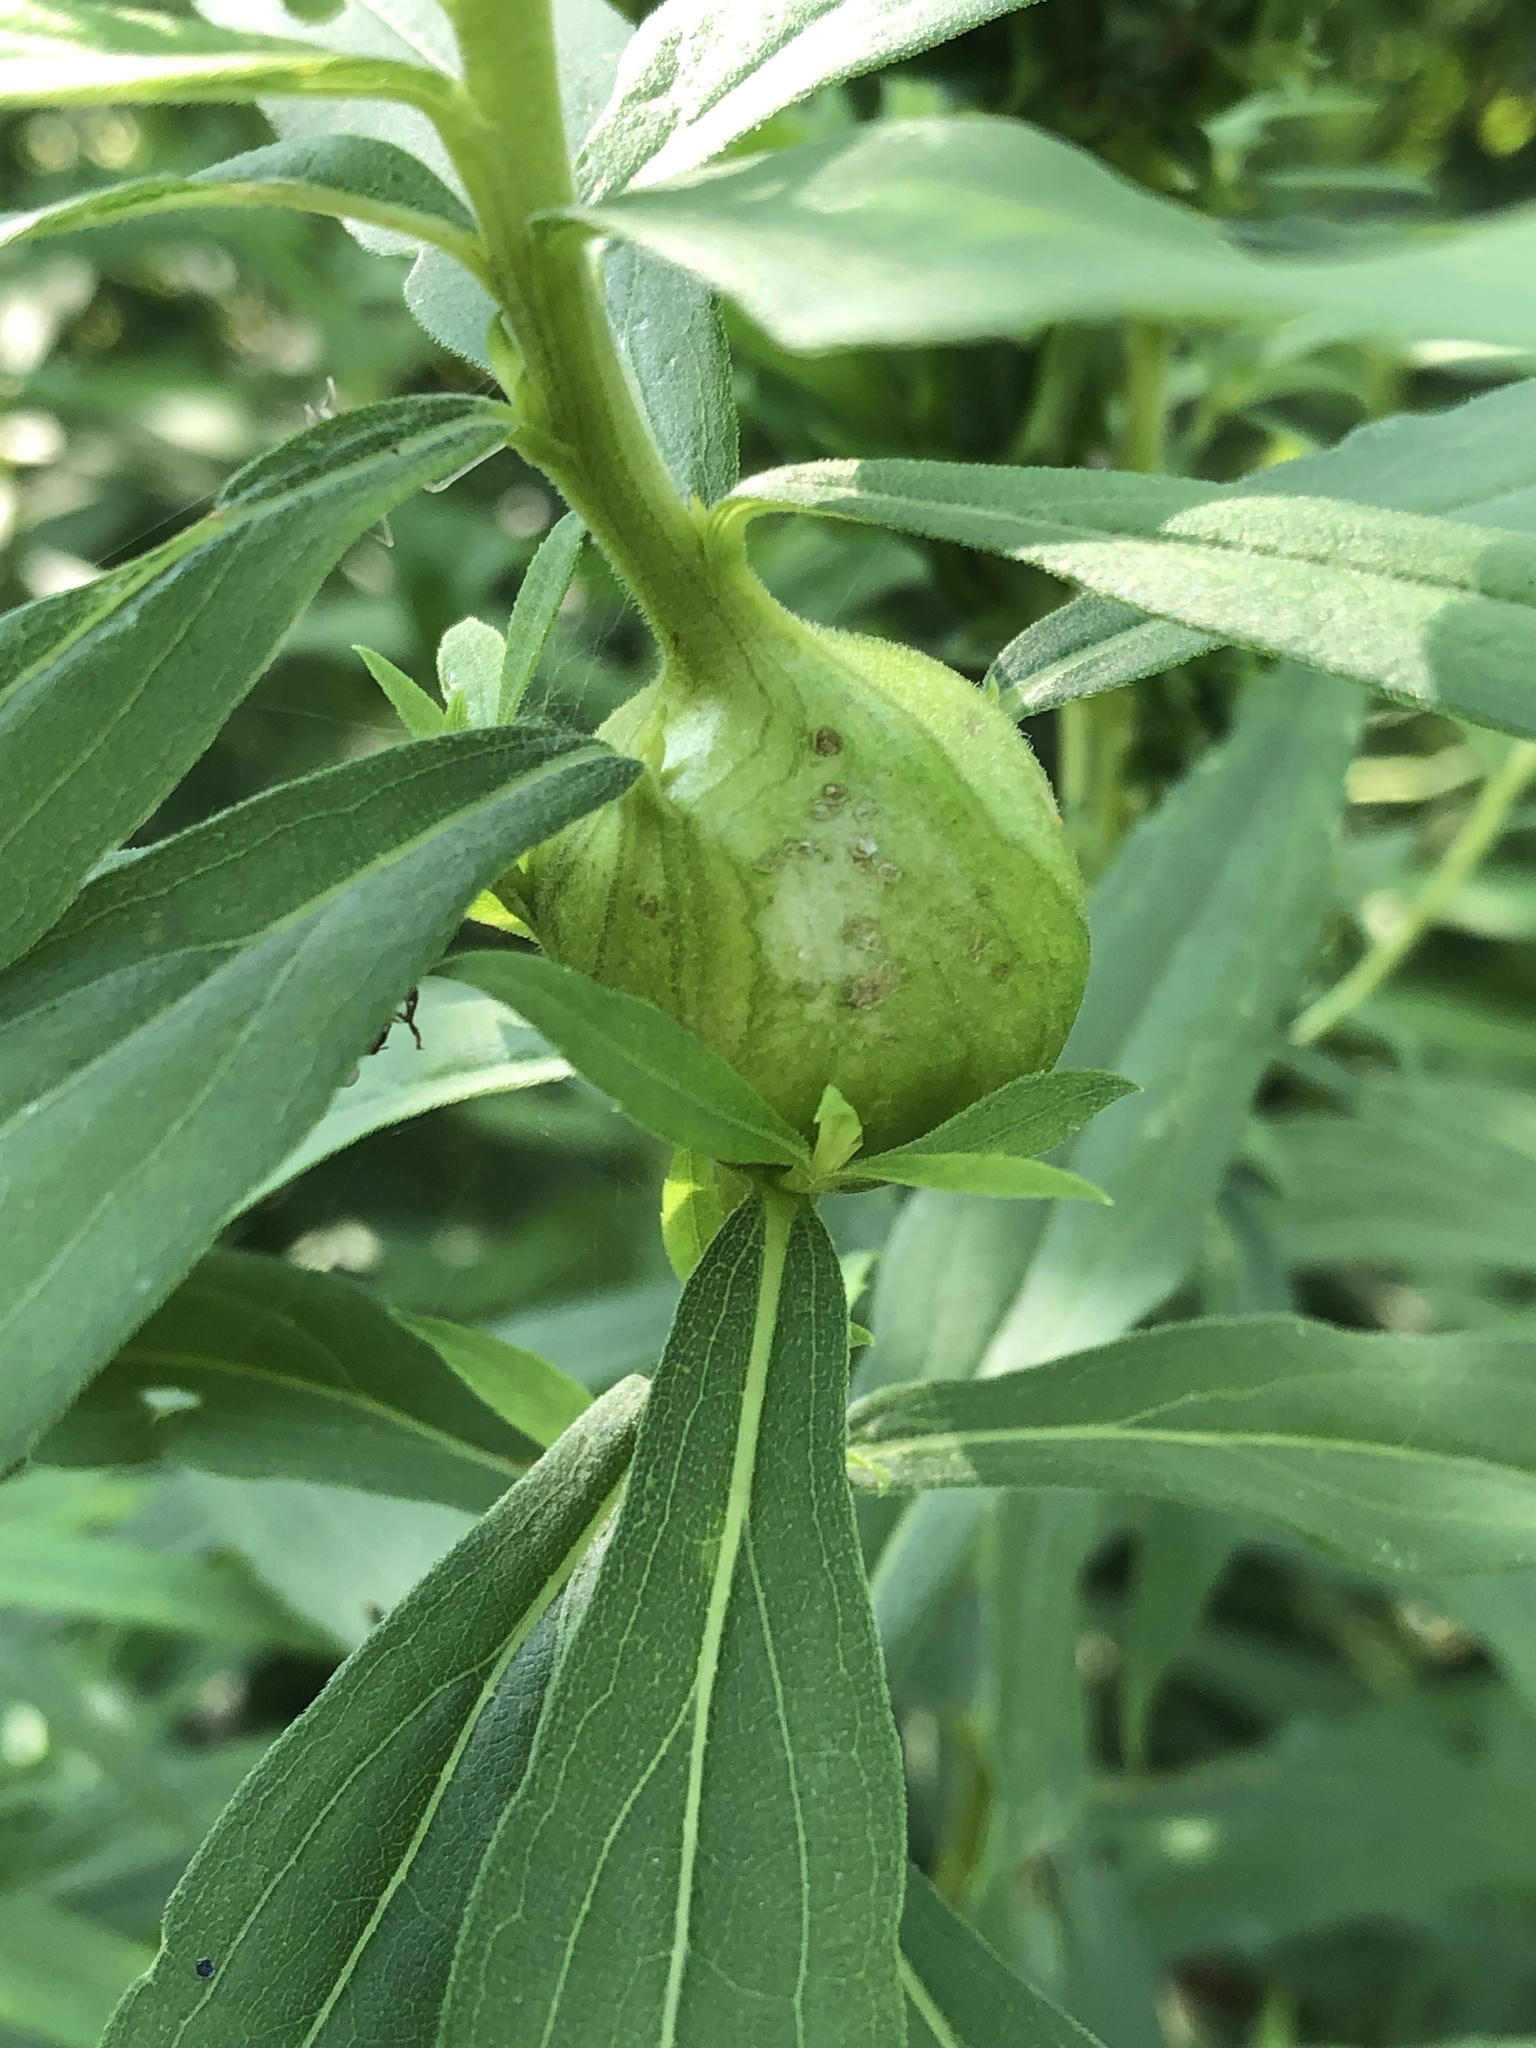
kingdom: Animalia
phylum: Arthropoda
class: Insecta
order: Diptera
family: Tephritidae
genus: Eurosta
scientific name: Eurosta solidaginis
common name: Goldenrod gall fly
